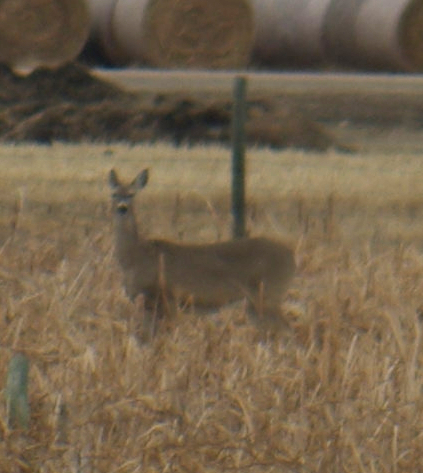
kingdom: Animalia
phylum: Chordata
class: Mammalia
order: Artiodactyla
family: Cervidae
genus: Odocoileus
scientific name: Odocoileus virginianus
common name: White-tailed deer
